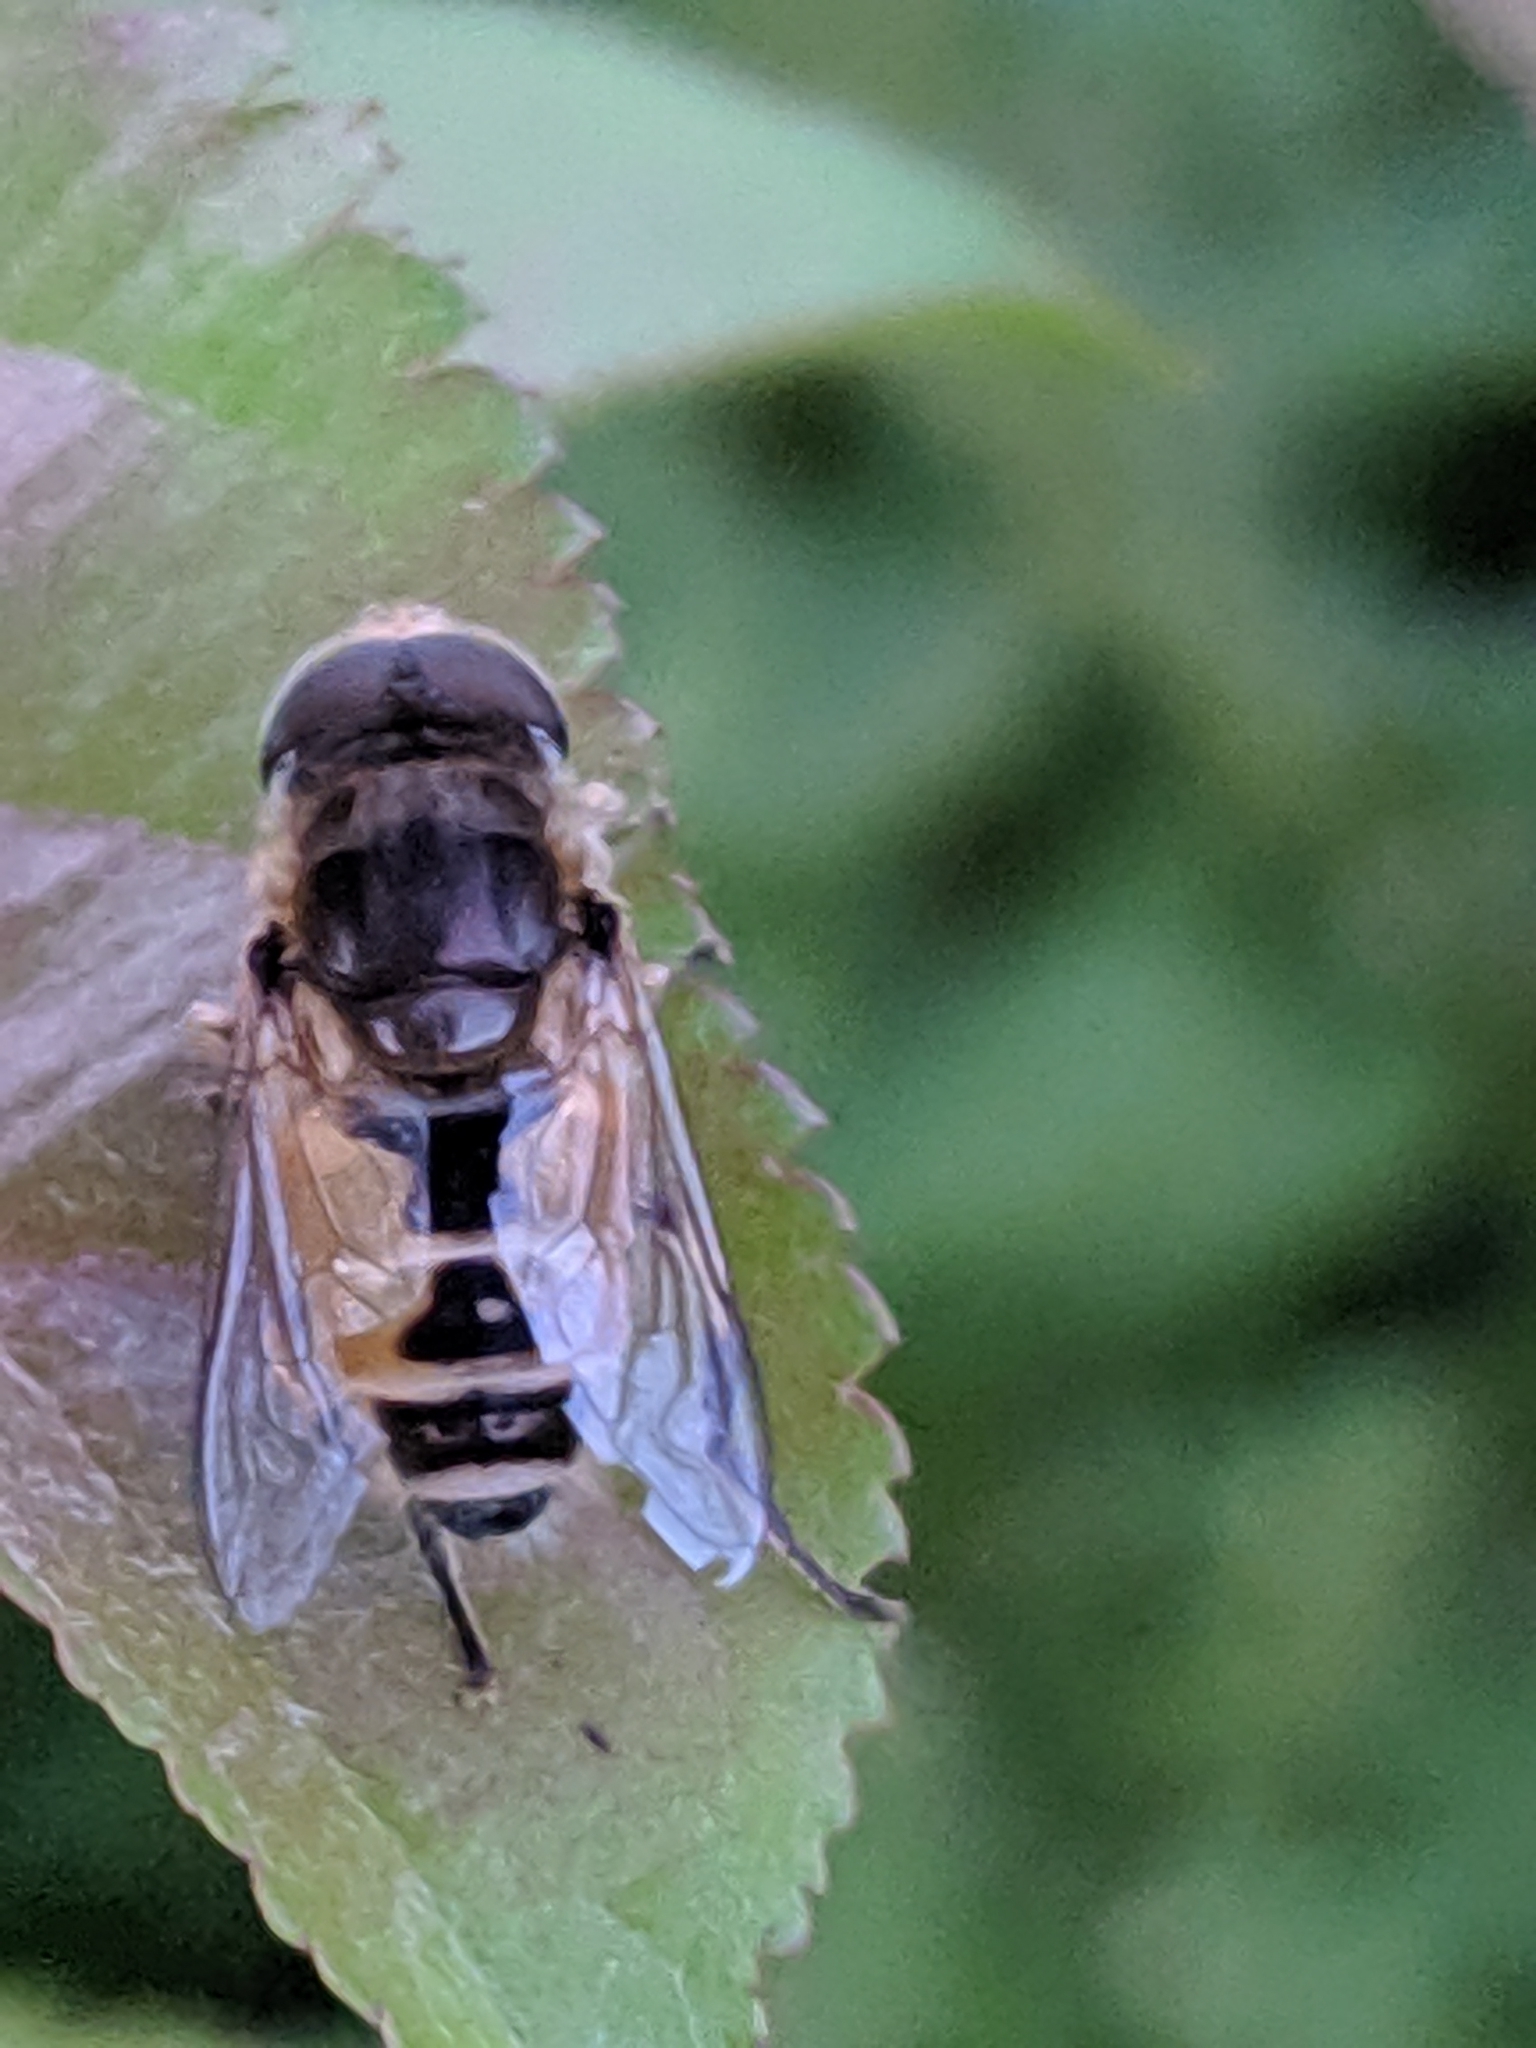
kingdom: Animalia
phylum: Arthropoda
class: Insecta
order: Diptera
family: Syrphidae
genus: Eristalis
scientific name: Eristalis arbustorum
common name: Hover fly
